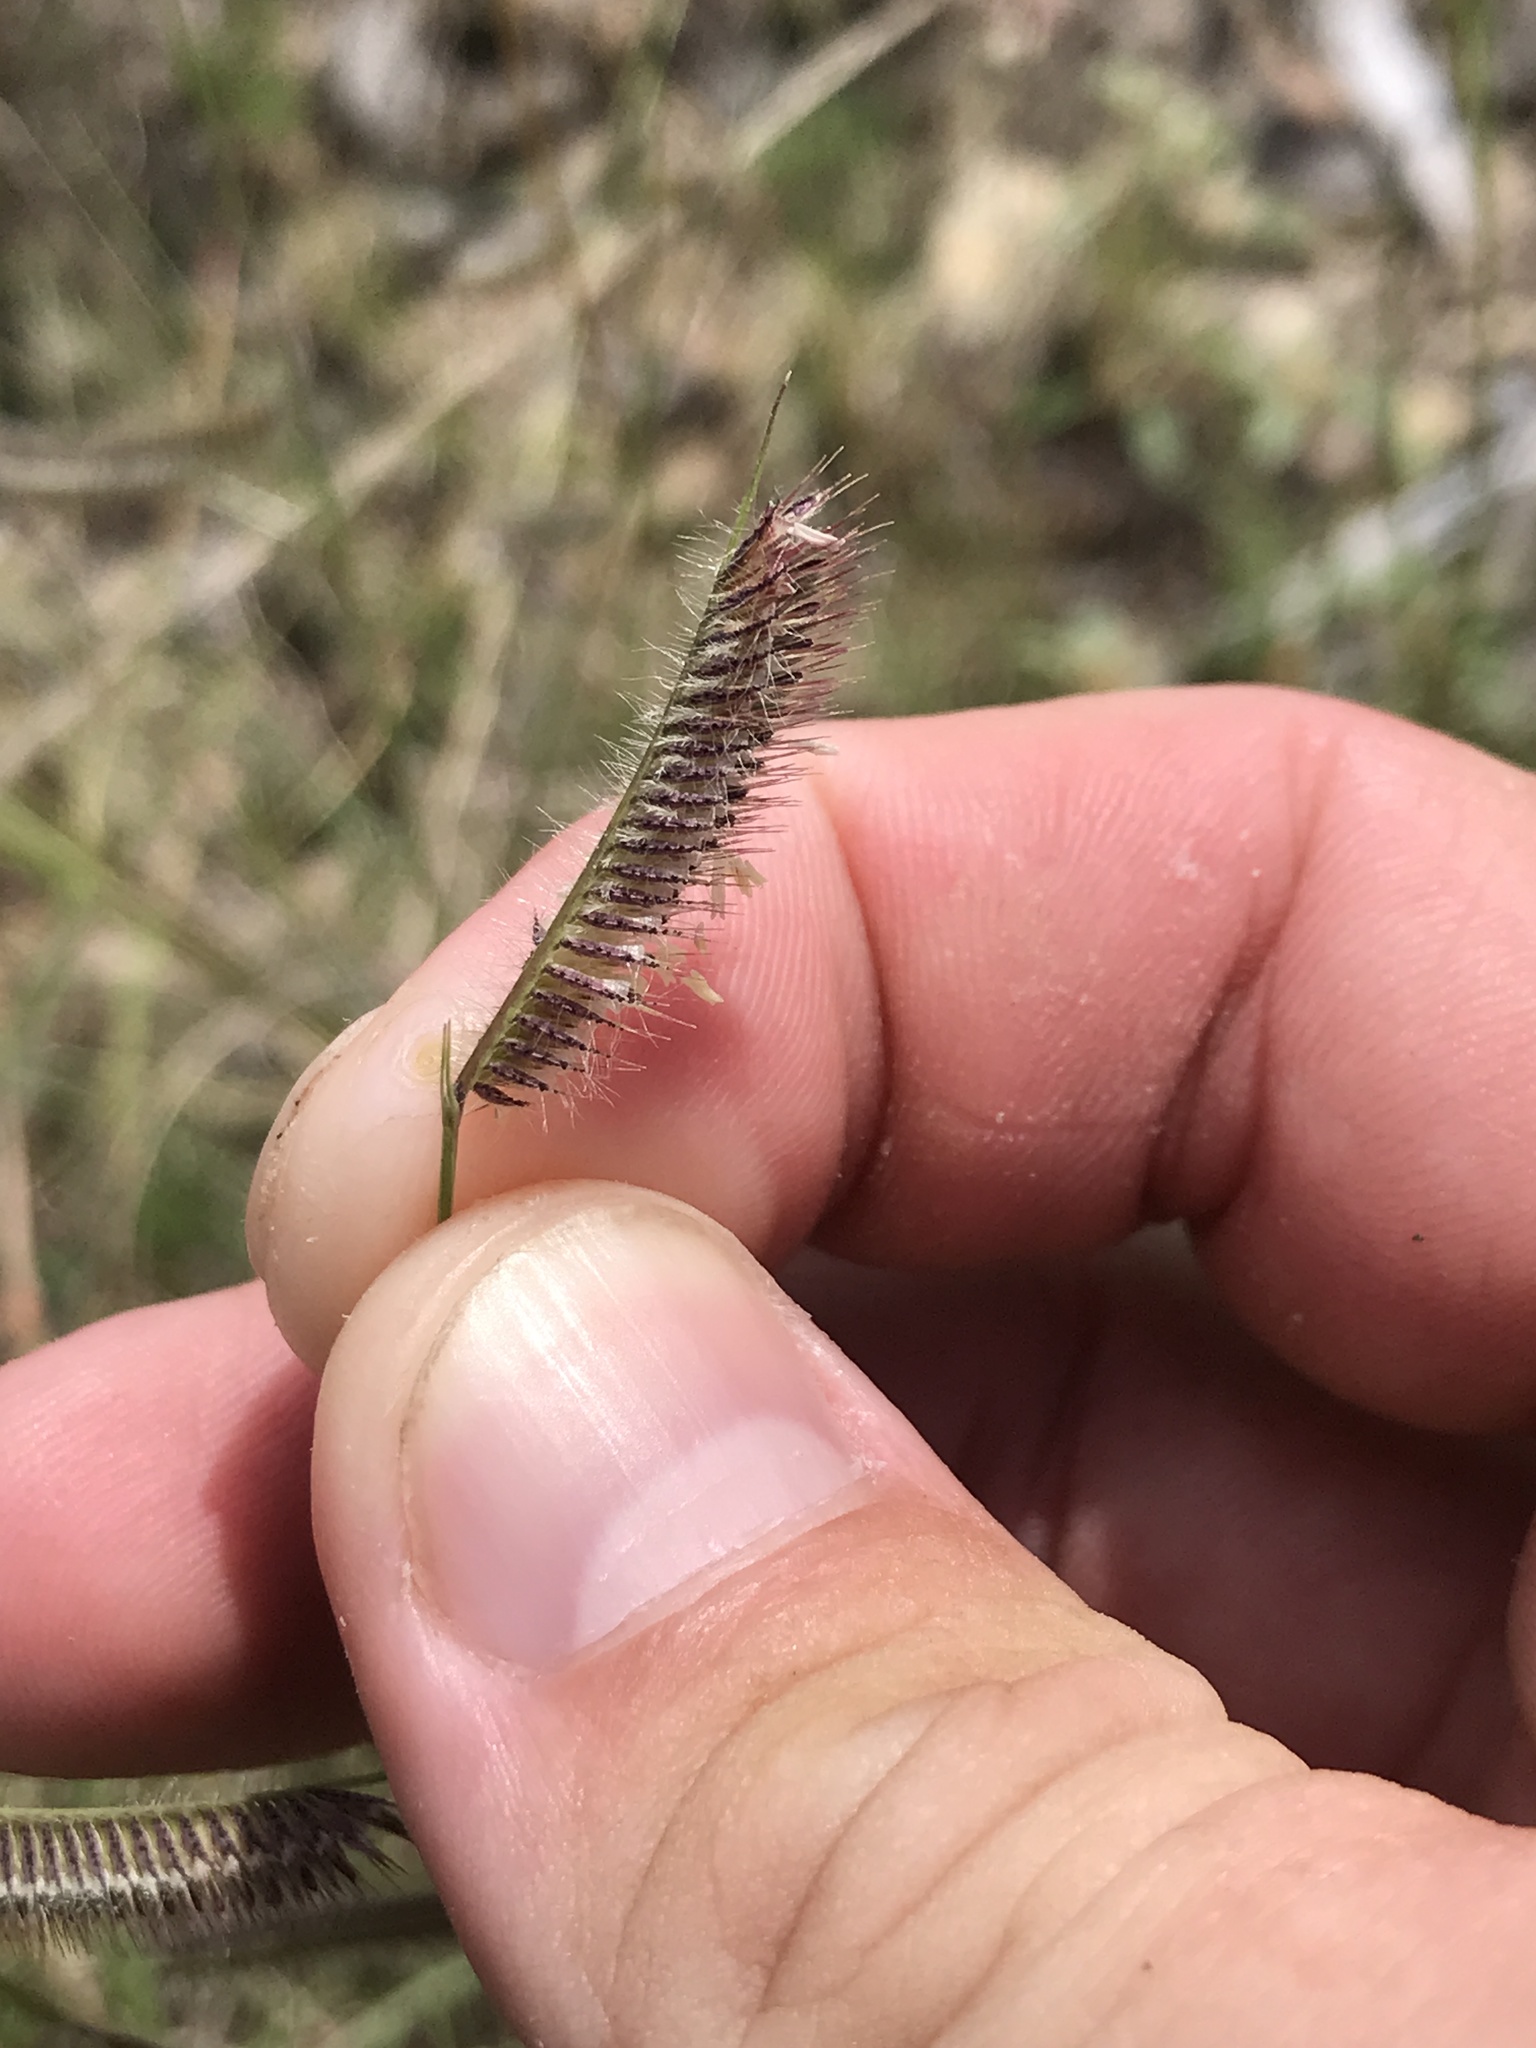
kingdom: Plantae
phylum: Tracheophyta
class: Liliopsida
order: Poales
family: Poaceae
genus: Bouteloua
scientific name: Bouteloua hirsuta
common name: Hairy grama
